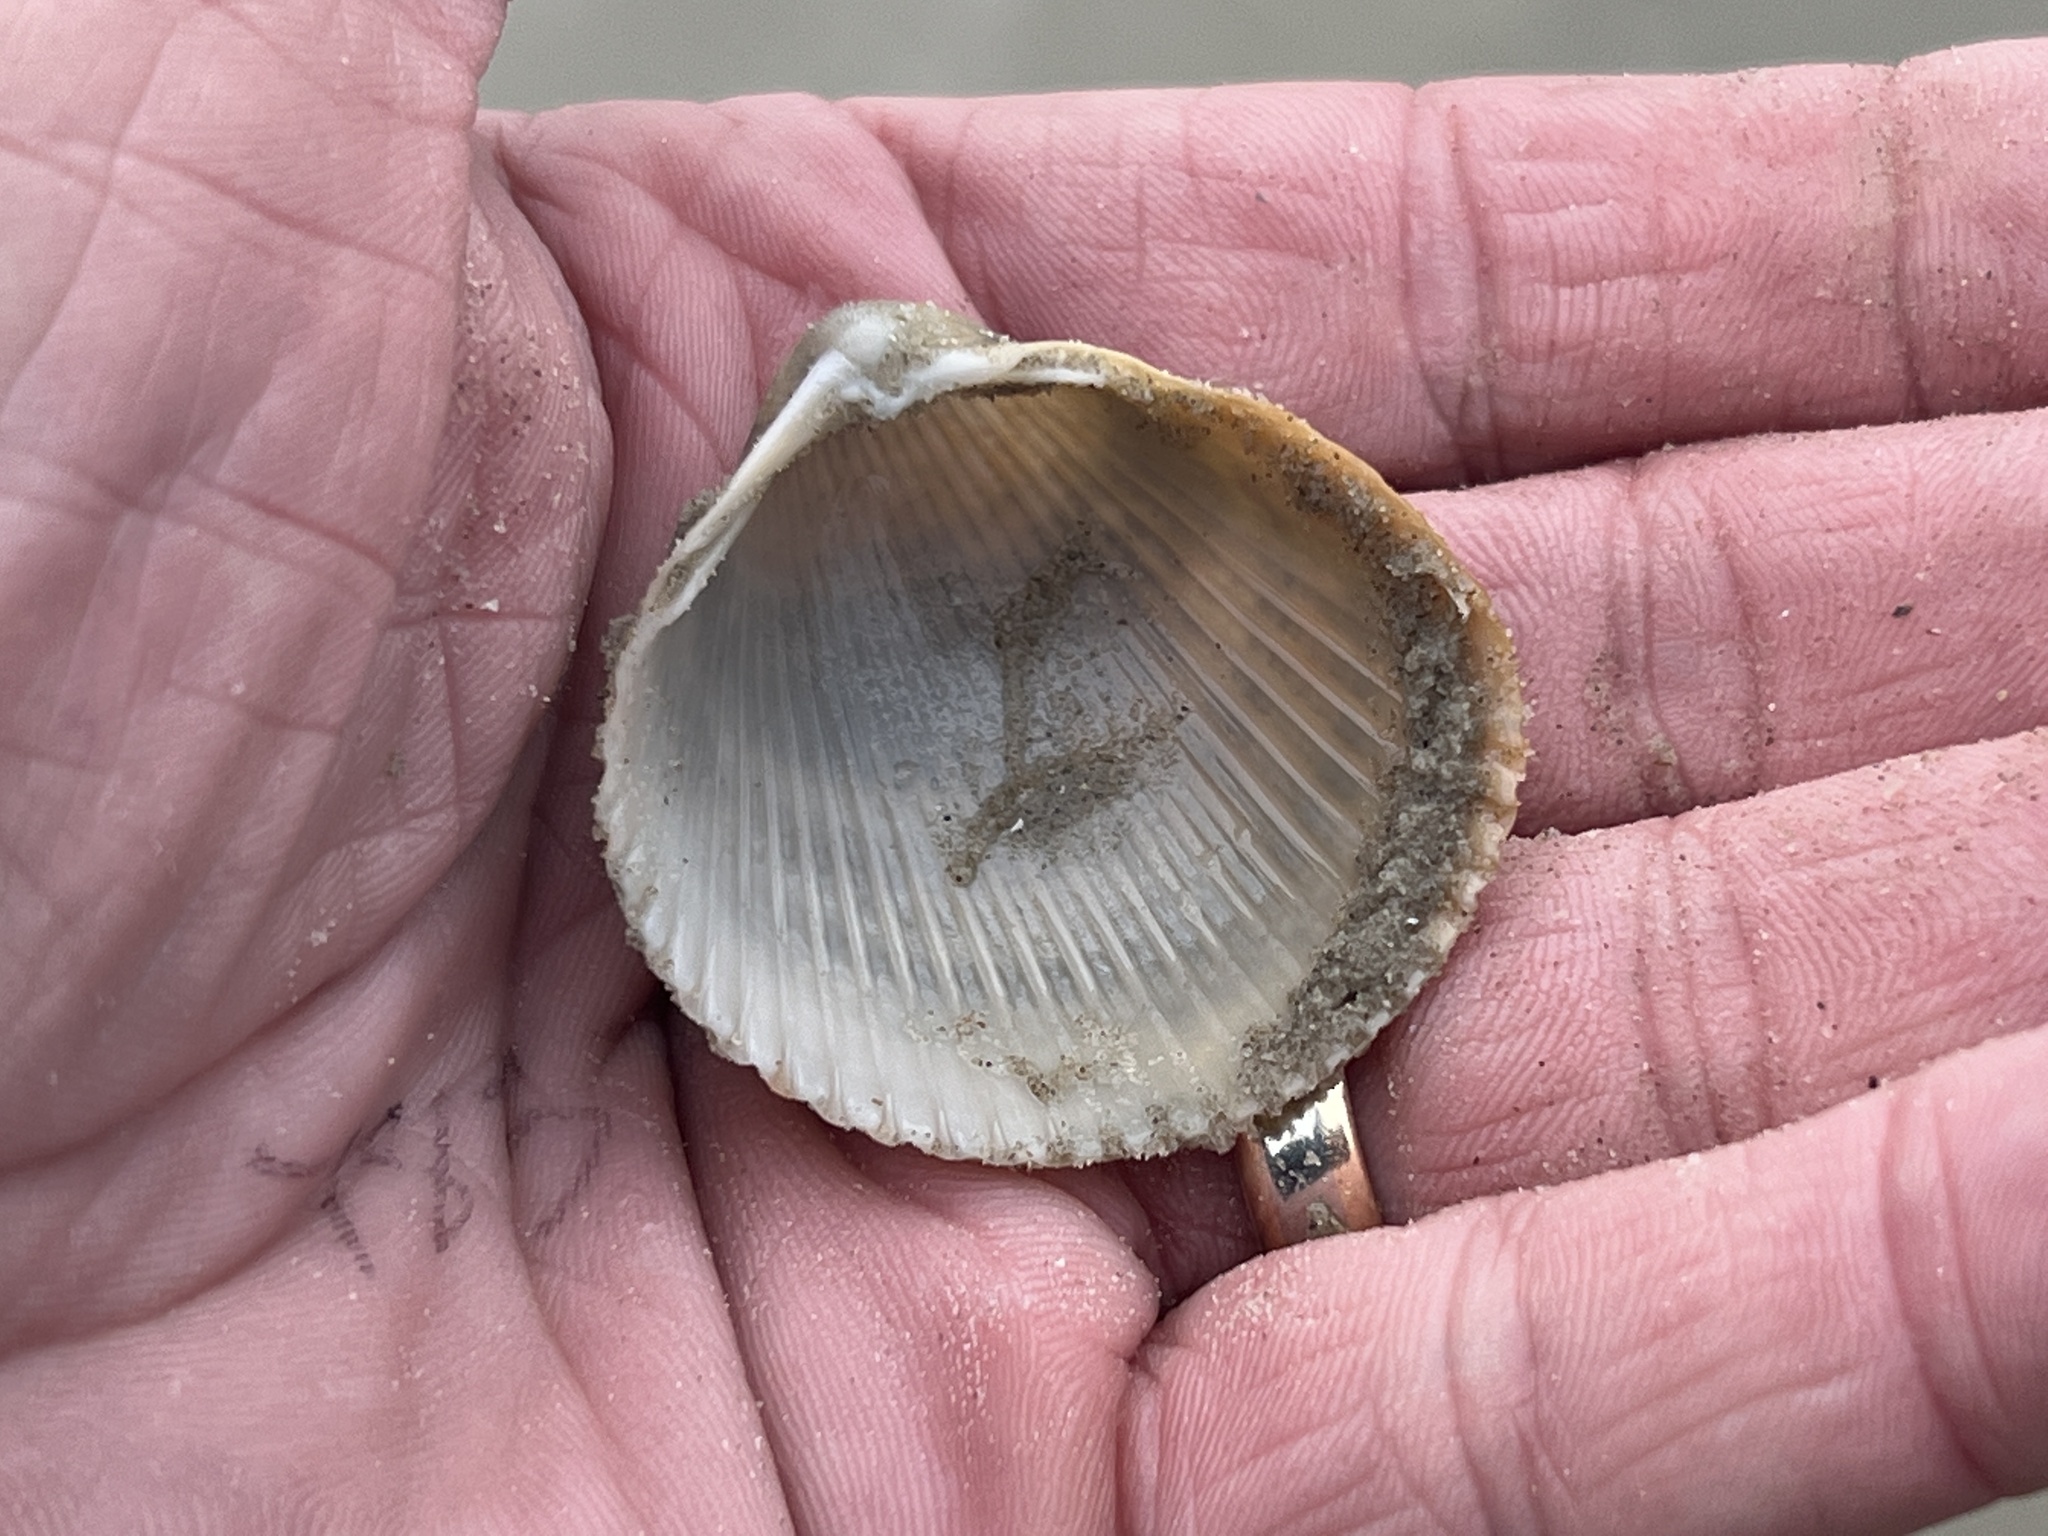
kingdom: Animalia
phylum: Mollusca
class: Bivalvia
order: Cardiida
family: Cardiidae
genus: Dinocardium
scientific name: Dinocardium robustum
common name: Atlantic giant cockle
